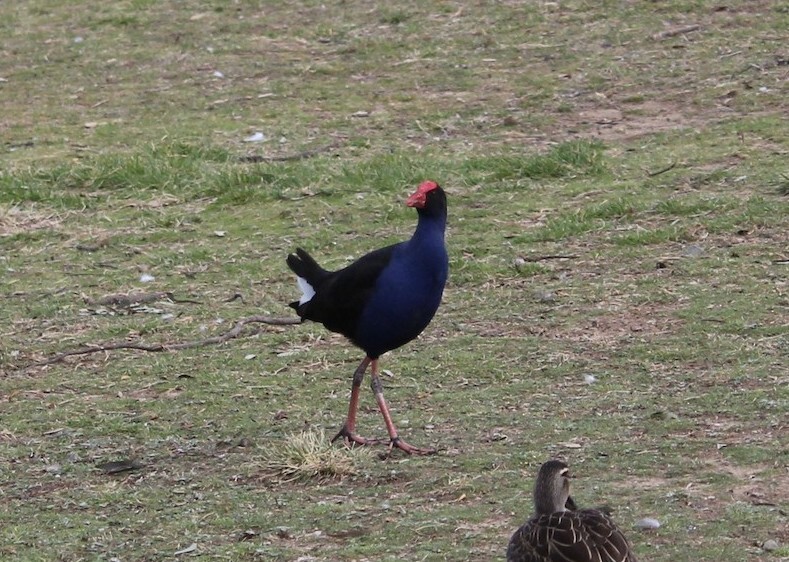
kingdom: Animalia
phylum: Chordata
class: Aves
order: Gruiformes
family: Rallidae
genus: Porphyrio
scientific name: Porphyrio melanotus
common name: Australasian swamphen
